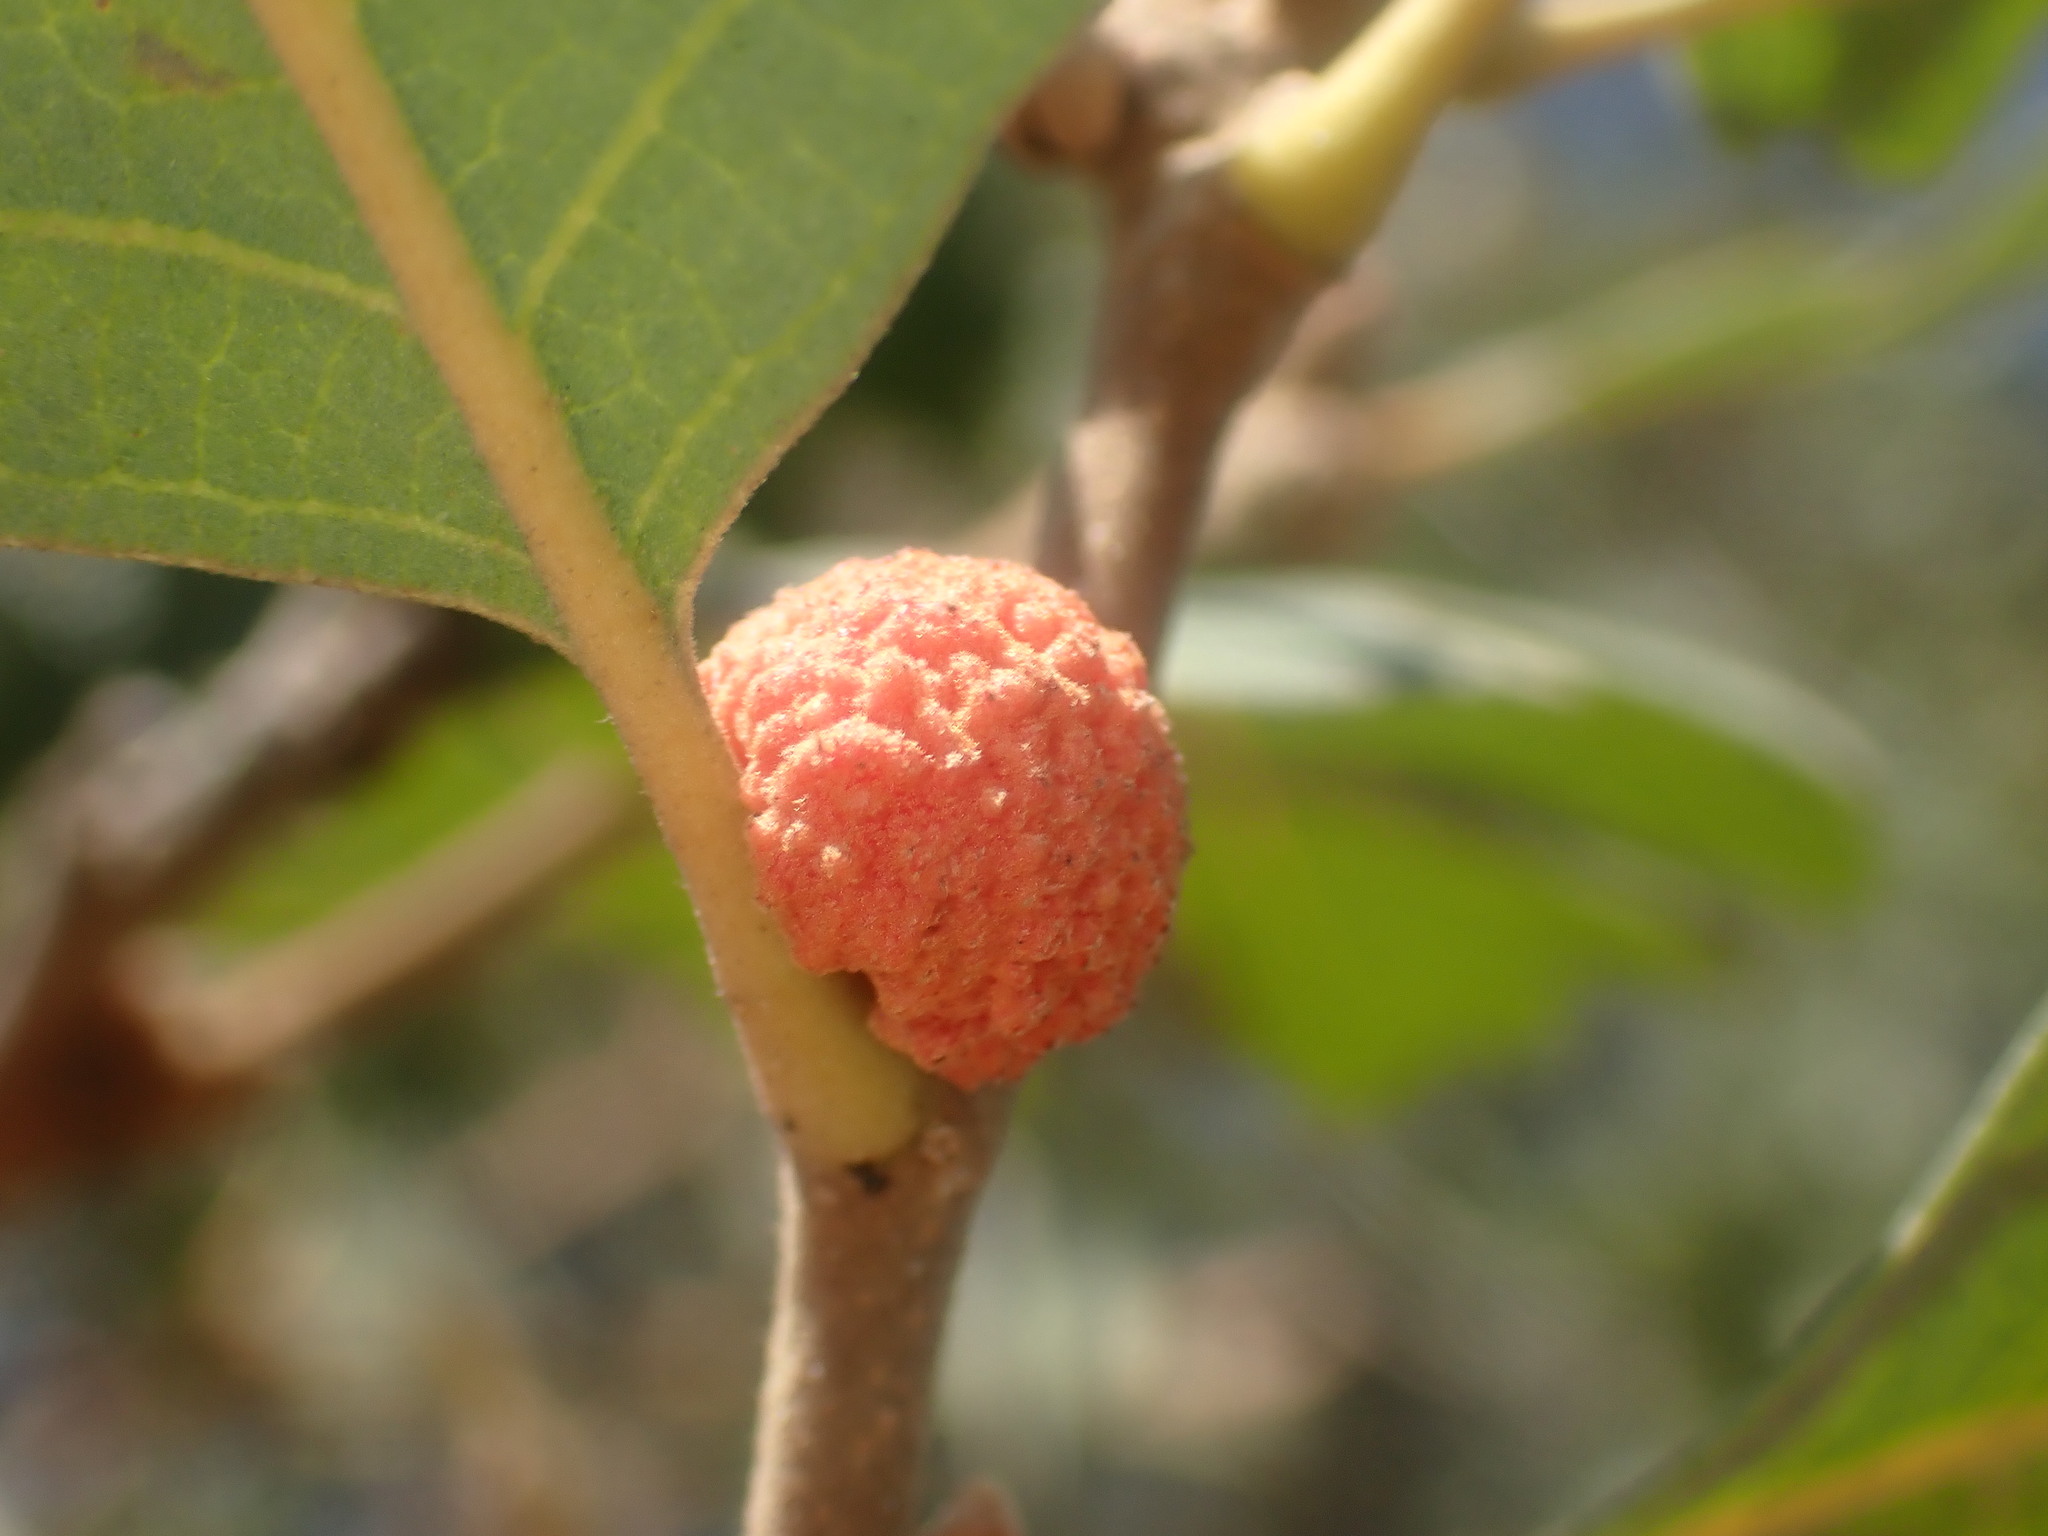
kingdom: Animalia
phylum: Arthropoda
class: Insecta
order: Hymenoptera
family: Cynipidae
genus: Cynips
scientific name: Cynips conspicua
